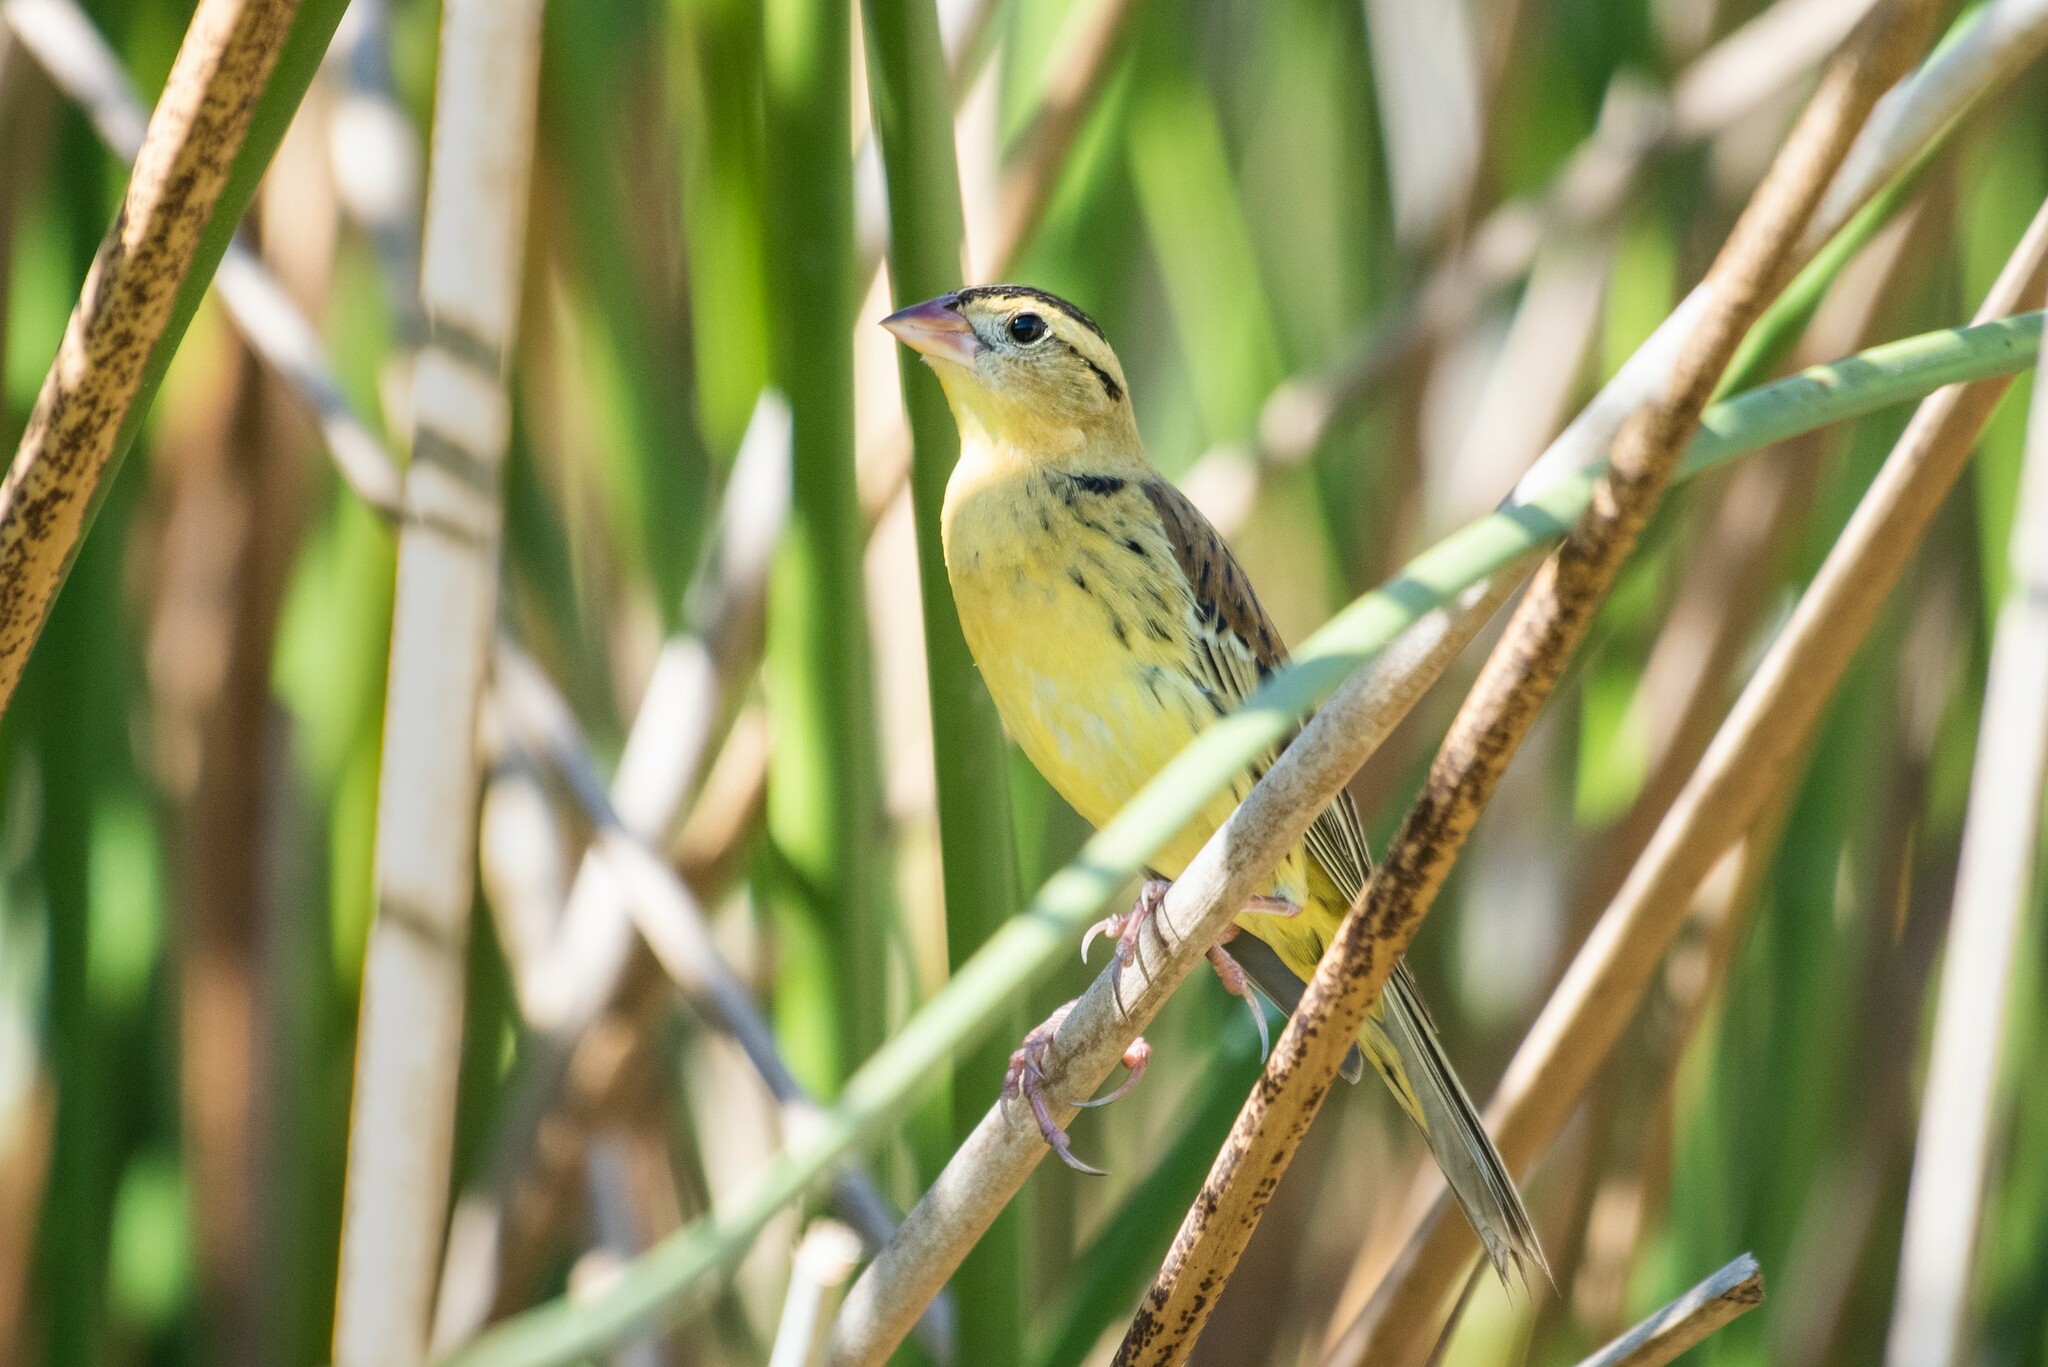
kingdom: Animalia
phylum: Chordata
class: Aves
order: Passeriformes
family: Icteridae
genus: Dolichonyx
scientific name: Dolichonyx oryzivorus
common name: Bobolink
